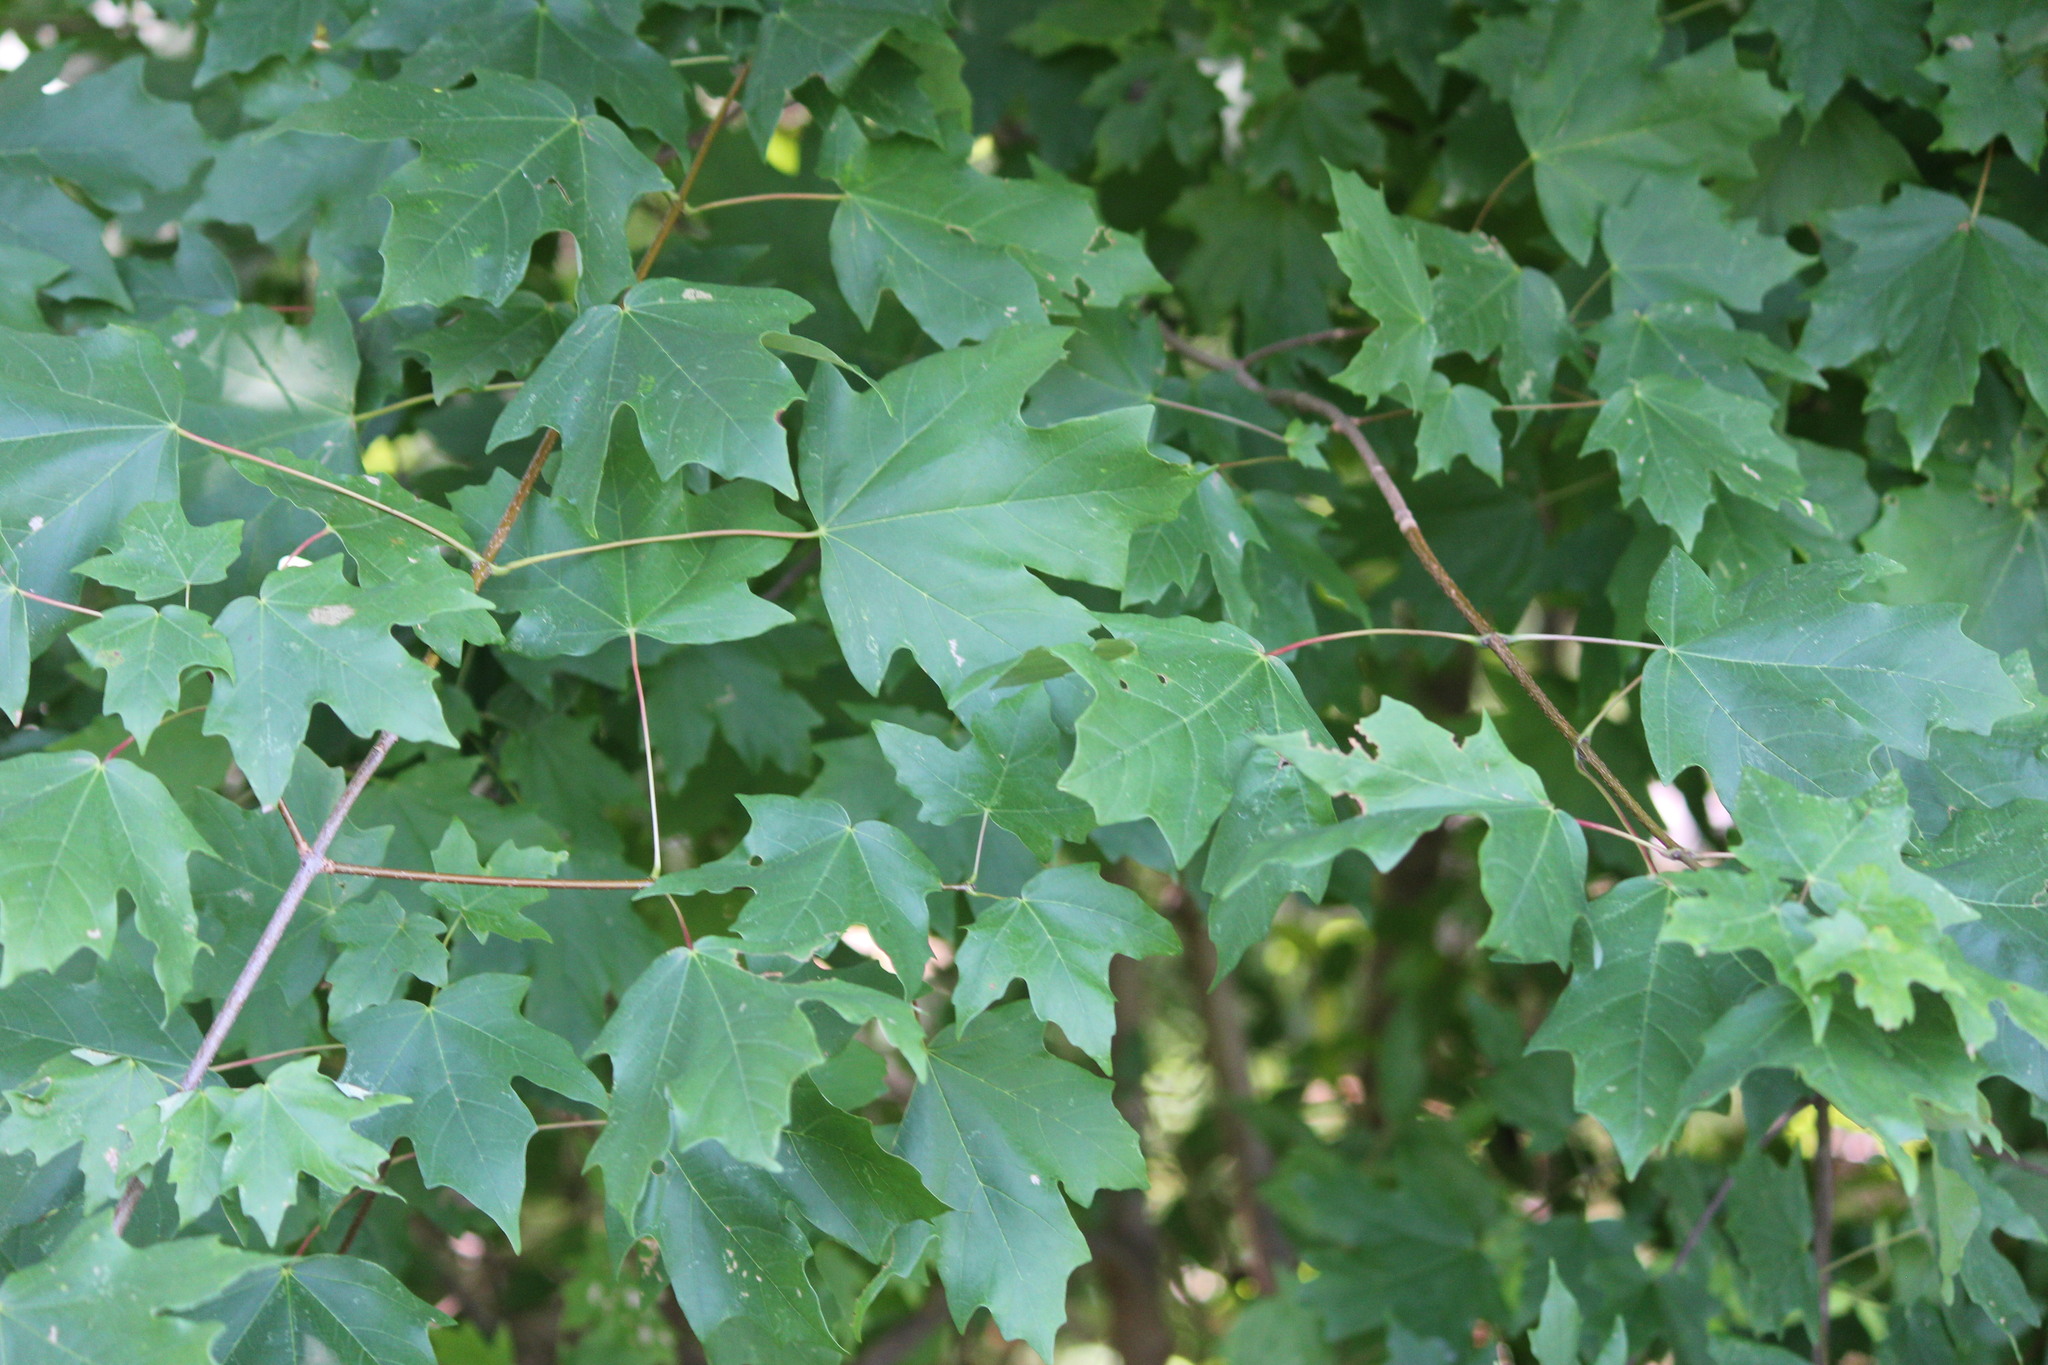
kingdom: Plantae
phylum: Tracheophyta
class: Magnoliopsida
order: Sapindales
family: Sapindaceae
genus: Acer
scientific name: Acer floridanum
